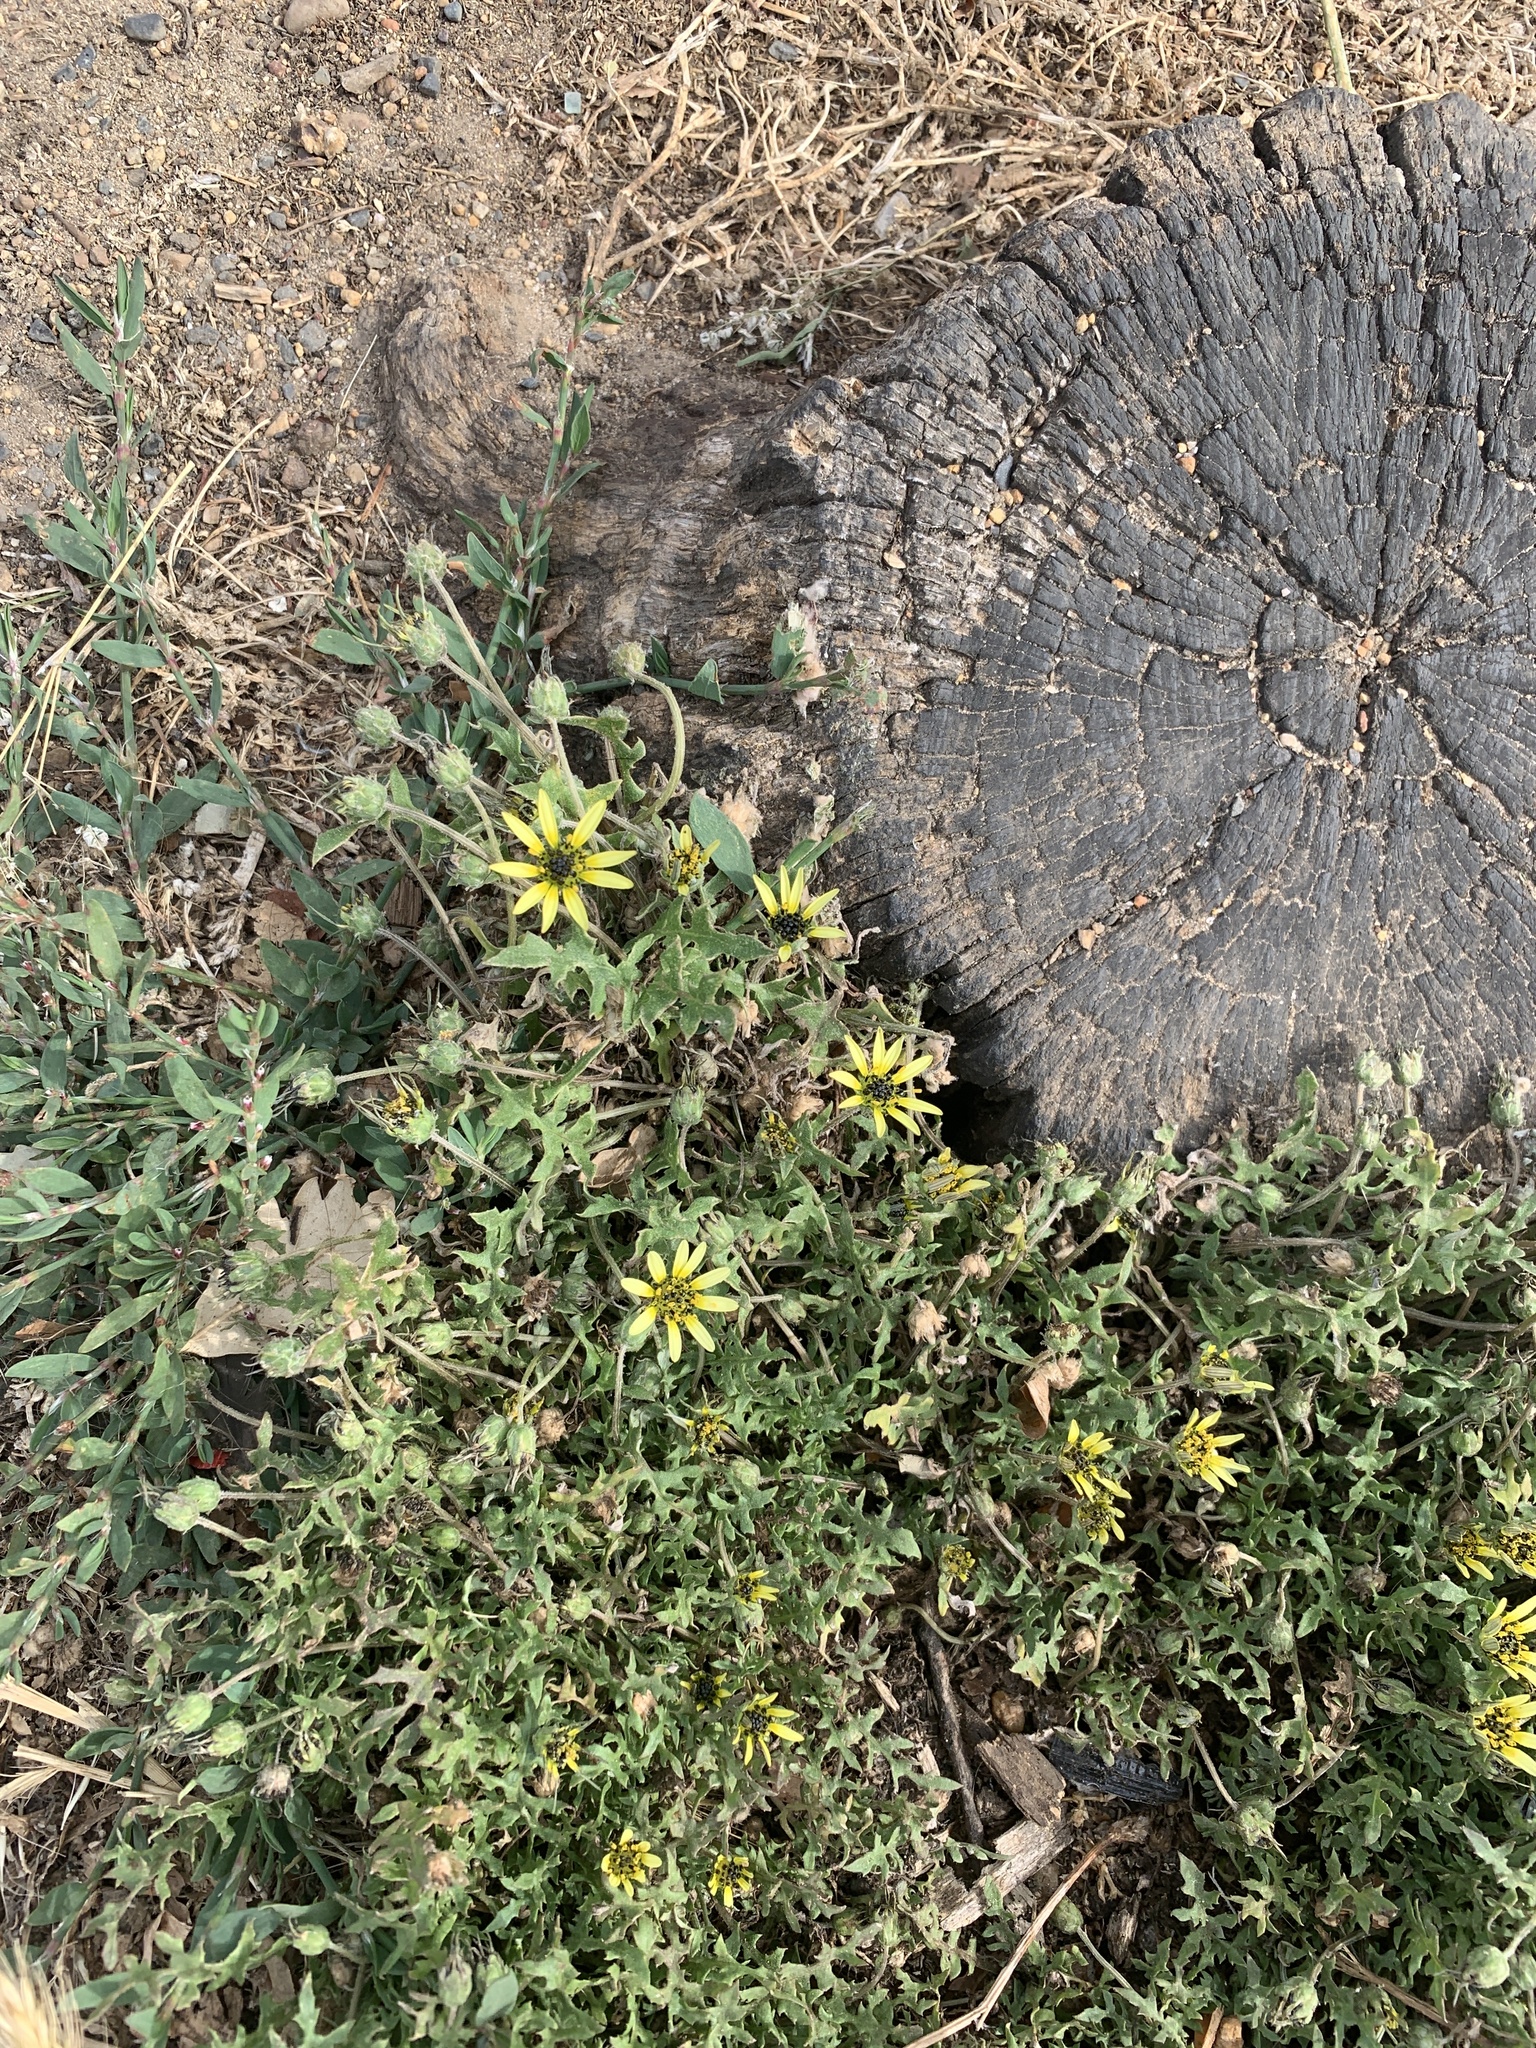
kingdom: Plantae
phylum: Tracheophyta
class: Magnoliopsida
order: Asterales
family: Asteraceae
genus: Arctotheca
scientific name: Arctotheca calendula
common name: Capeweed
